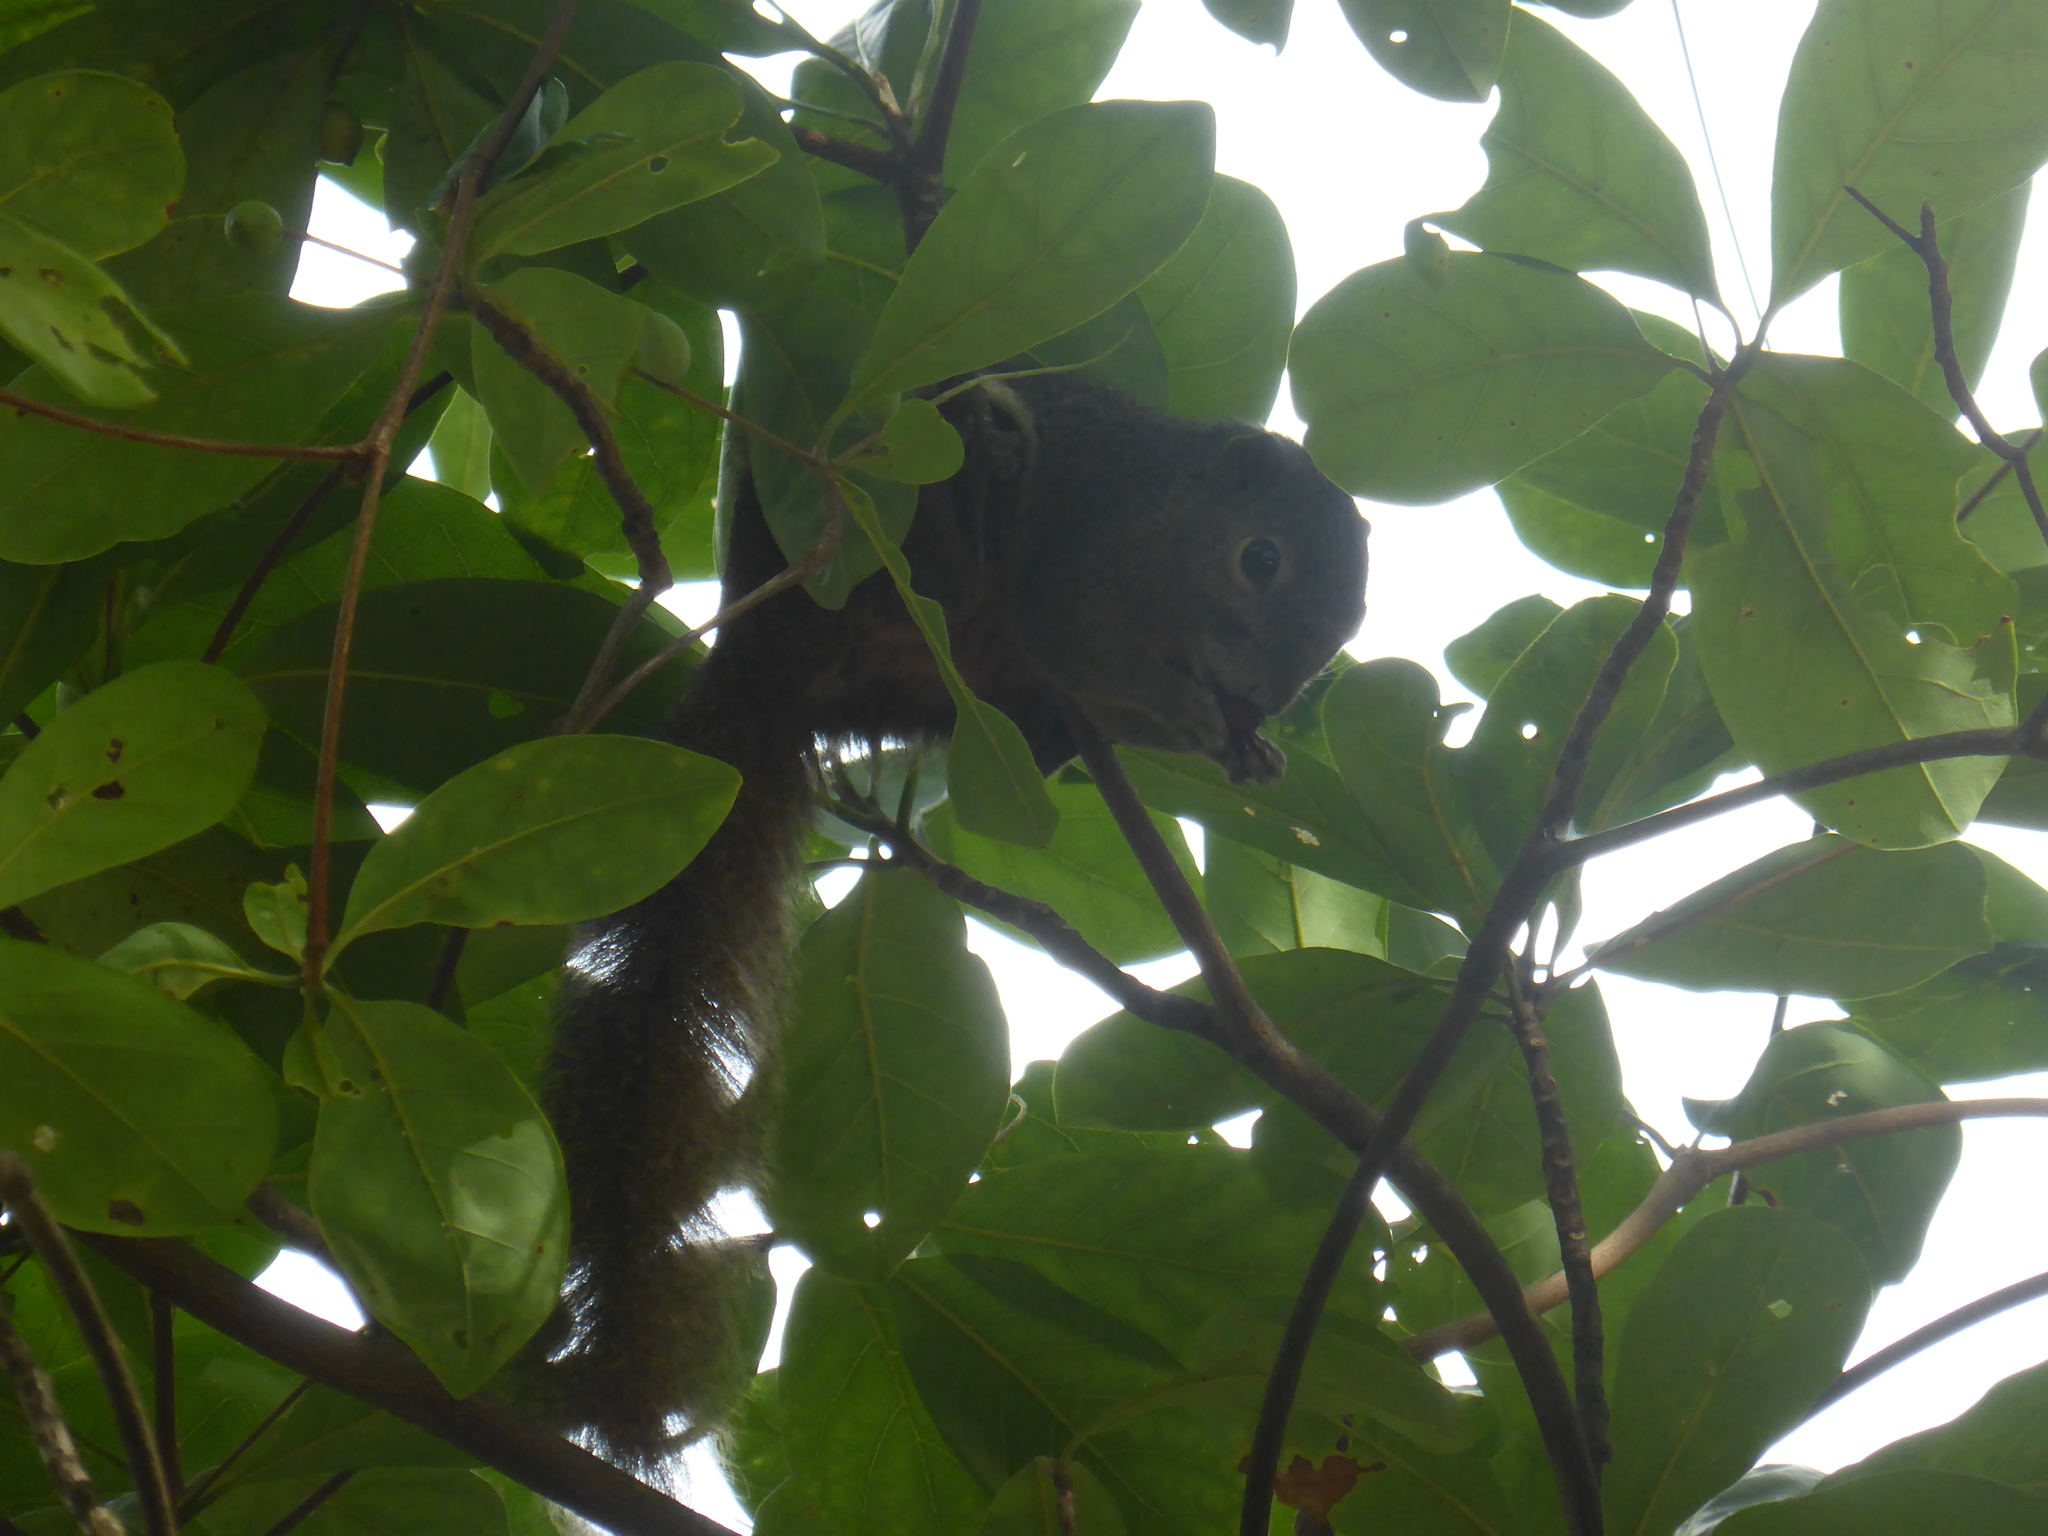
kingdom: Animalia
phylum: Chordata
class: Mammalia
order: Rodentia
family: Sciuridae
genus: Callosciurus
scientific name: Callosciurus notatus
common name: Plantain squirrel
